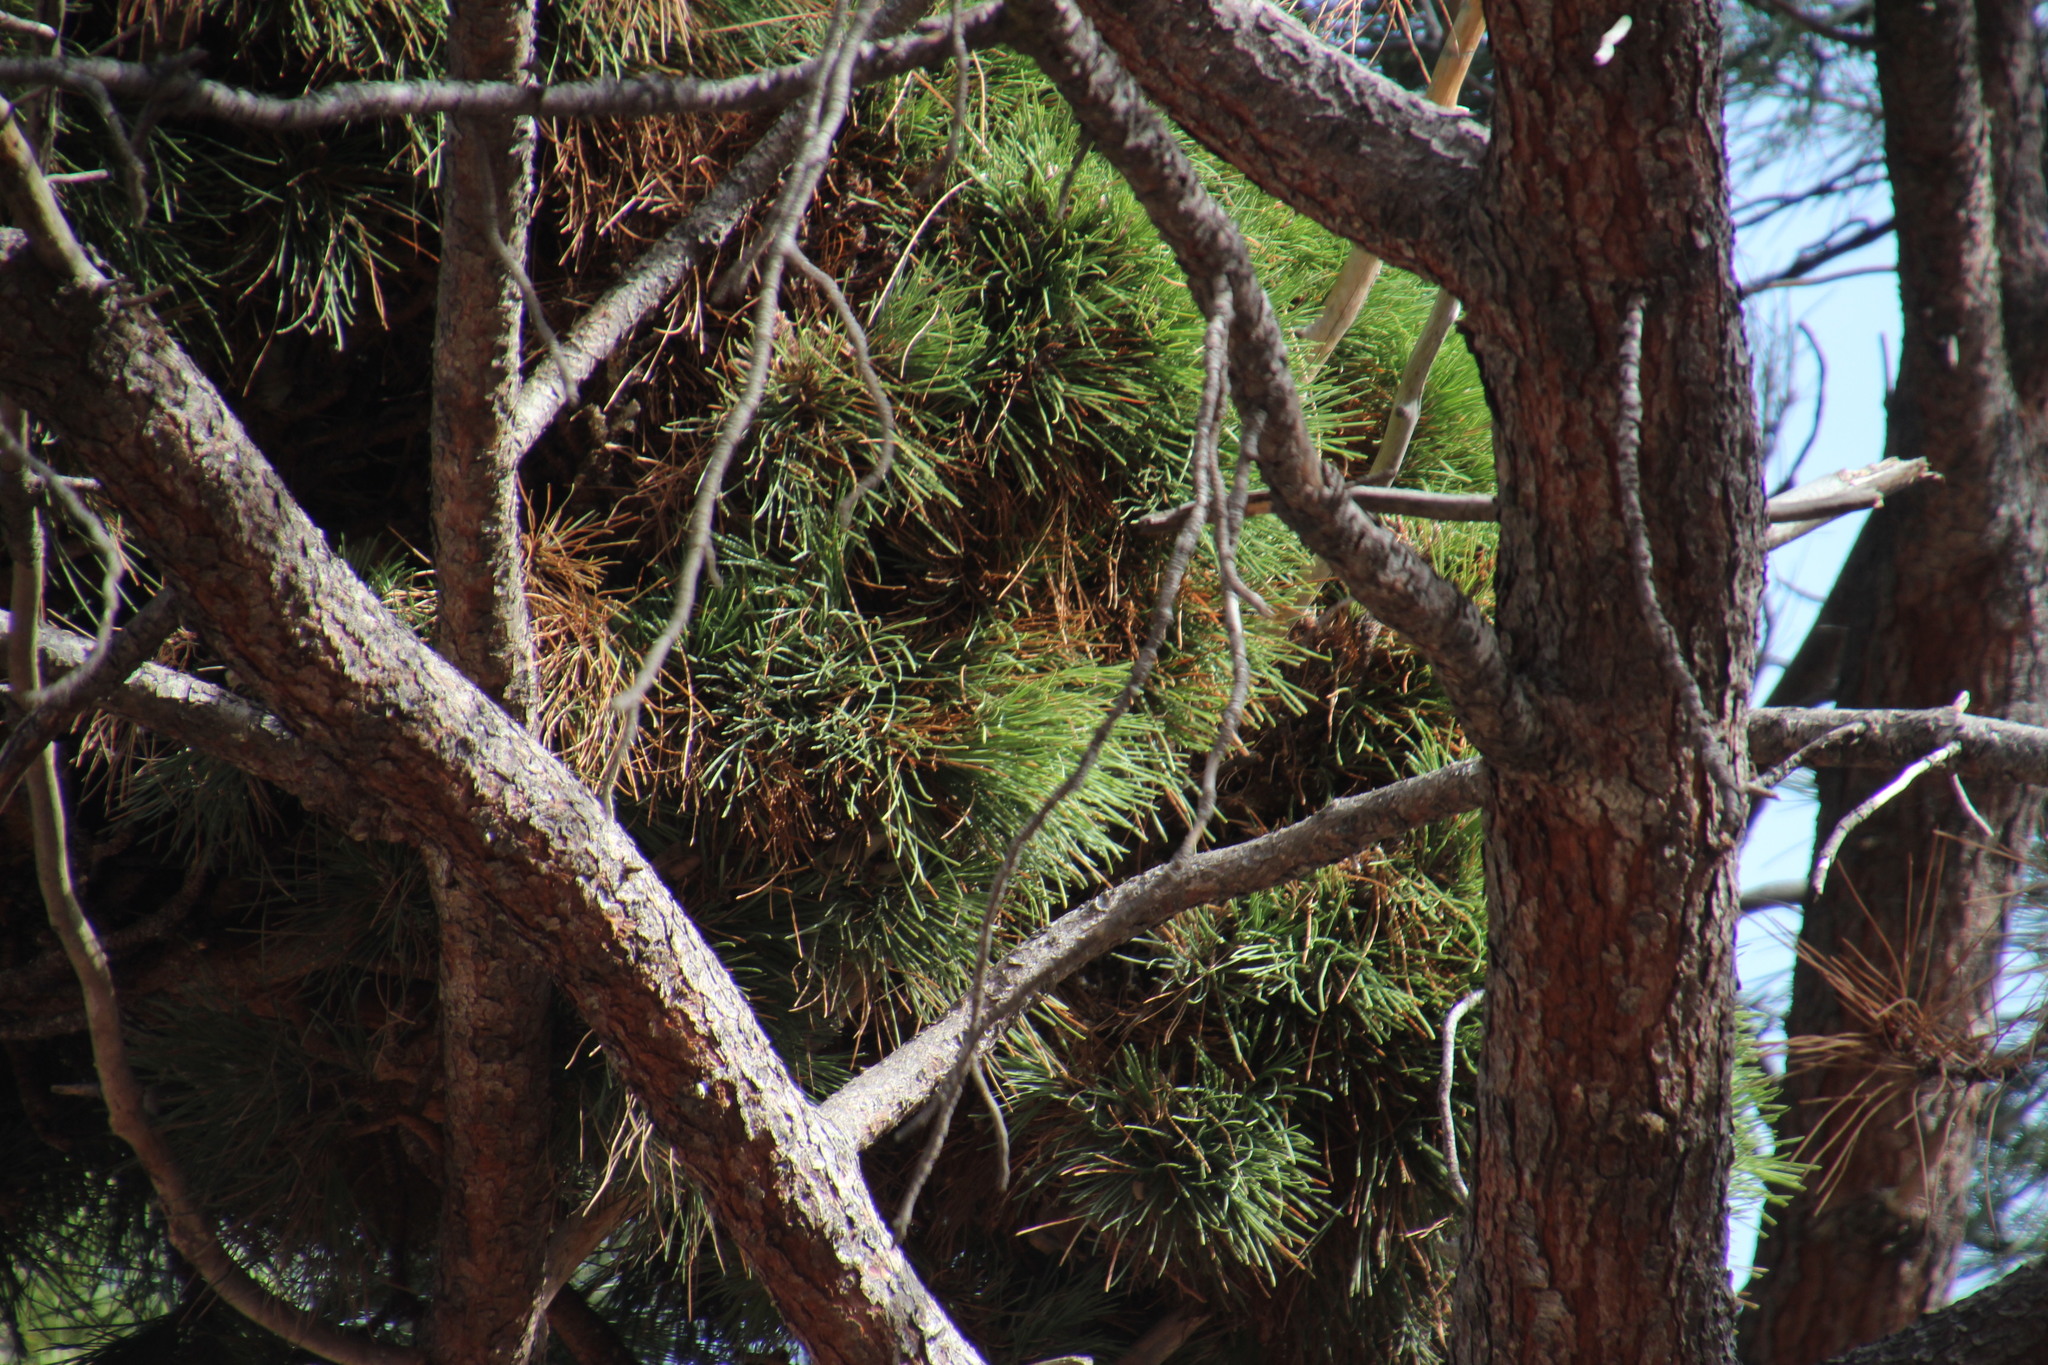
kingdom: Plantae
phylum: Tracheophyta
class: Pinopsida
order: Pinales
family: Pinaceae
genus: Pinus
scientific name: Pinus pinaster
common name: Maritime pine
